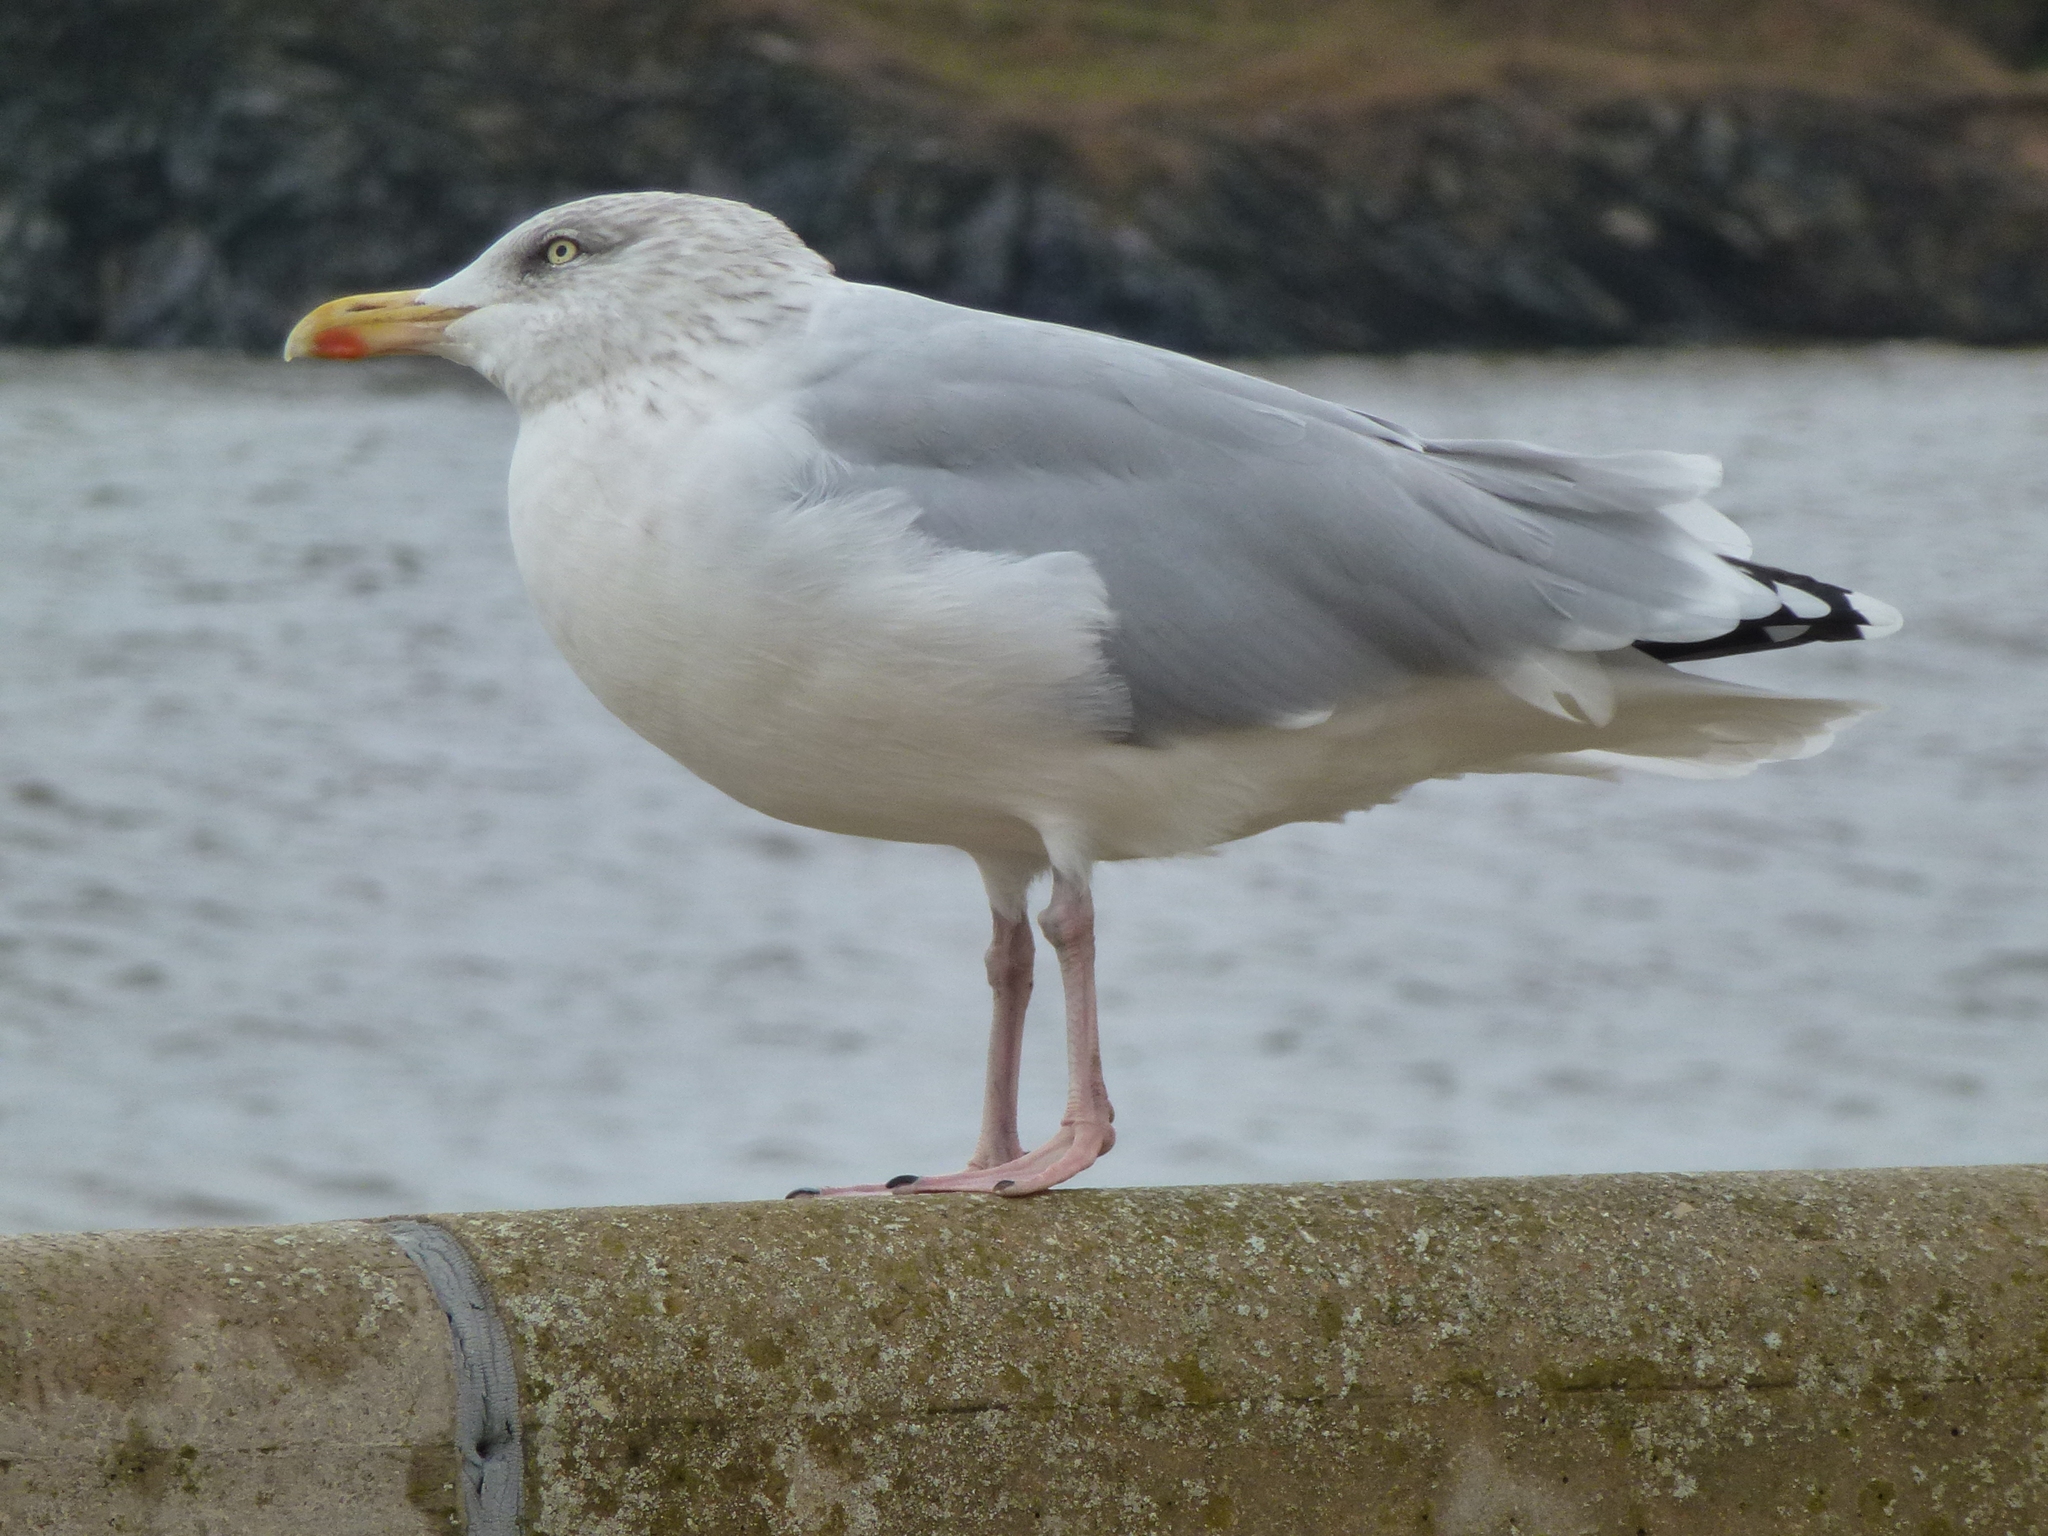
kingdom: Animalia
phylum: Chordata
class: Aves
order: Charadriiformes
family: Laridae
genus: Larus
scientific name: Larus argentatus
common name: Herring gull
